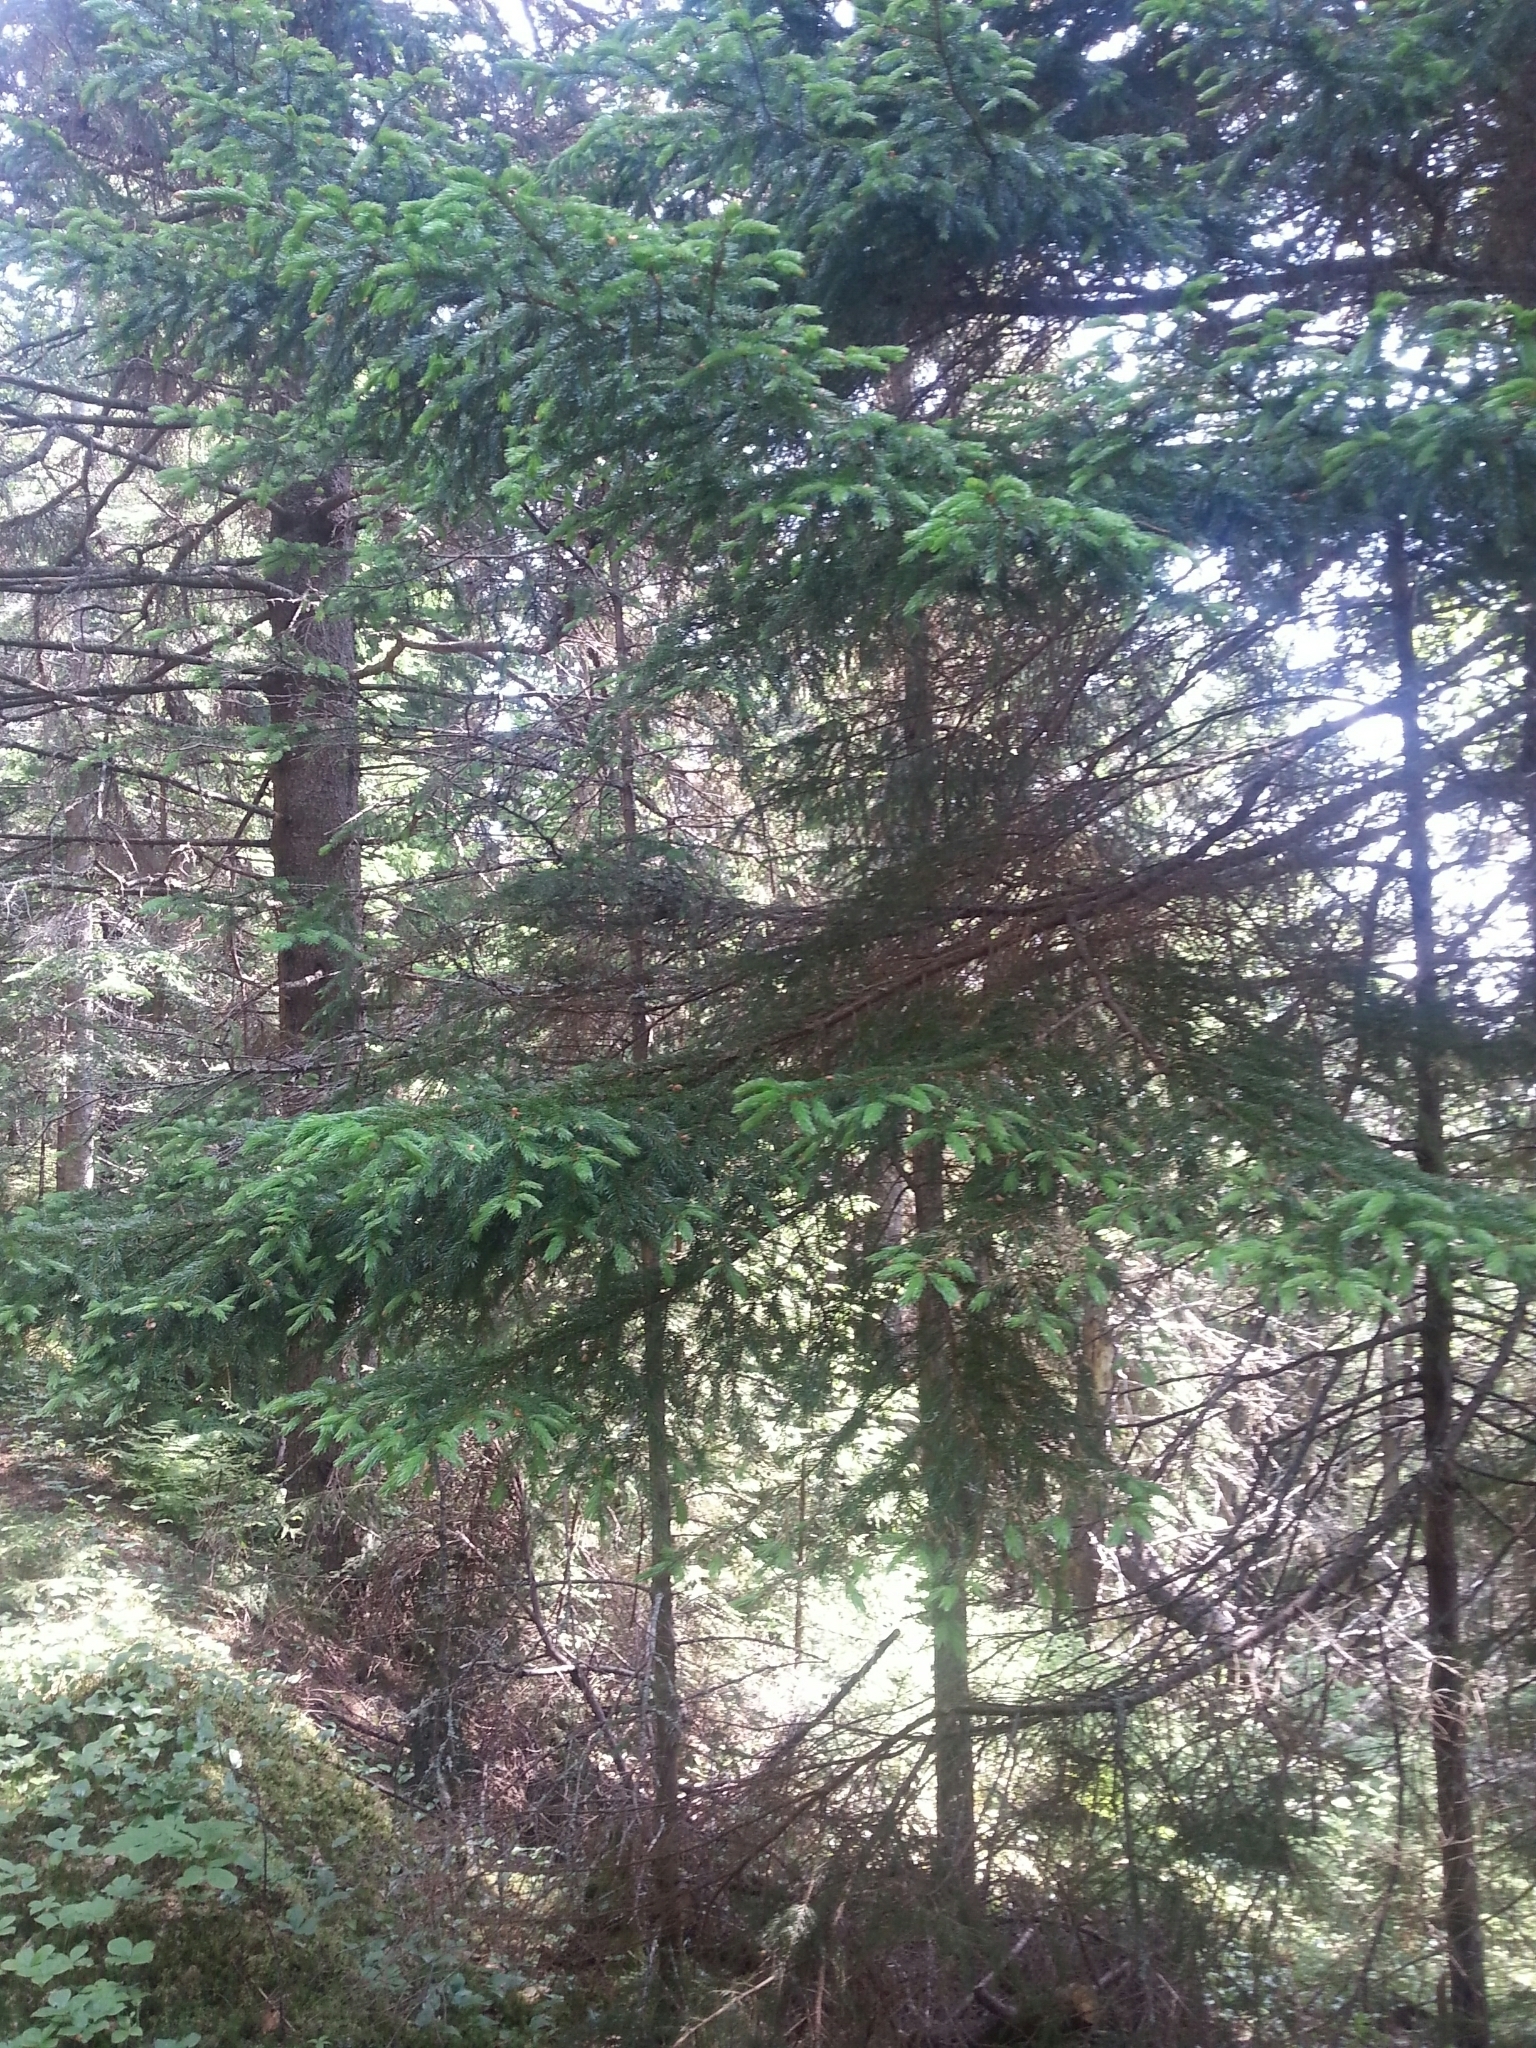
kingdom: Plantae
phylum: Tracheophyta
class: Pinopsida
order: Pinales
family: Pinaceae
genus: Picea
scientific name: Picea rubens
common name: Red spruce
